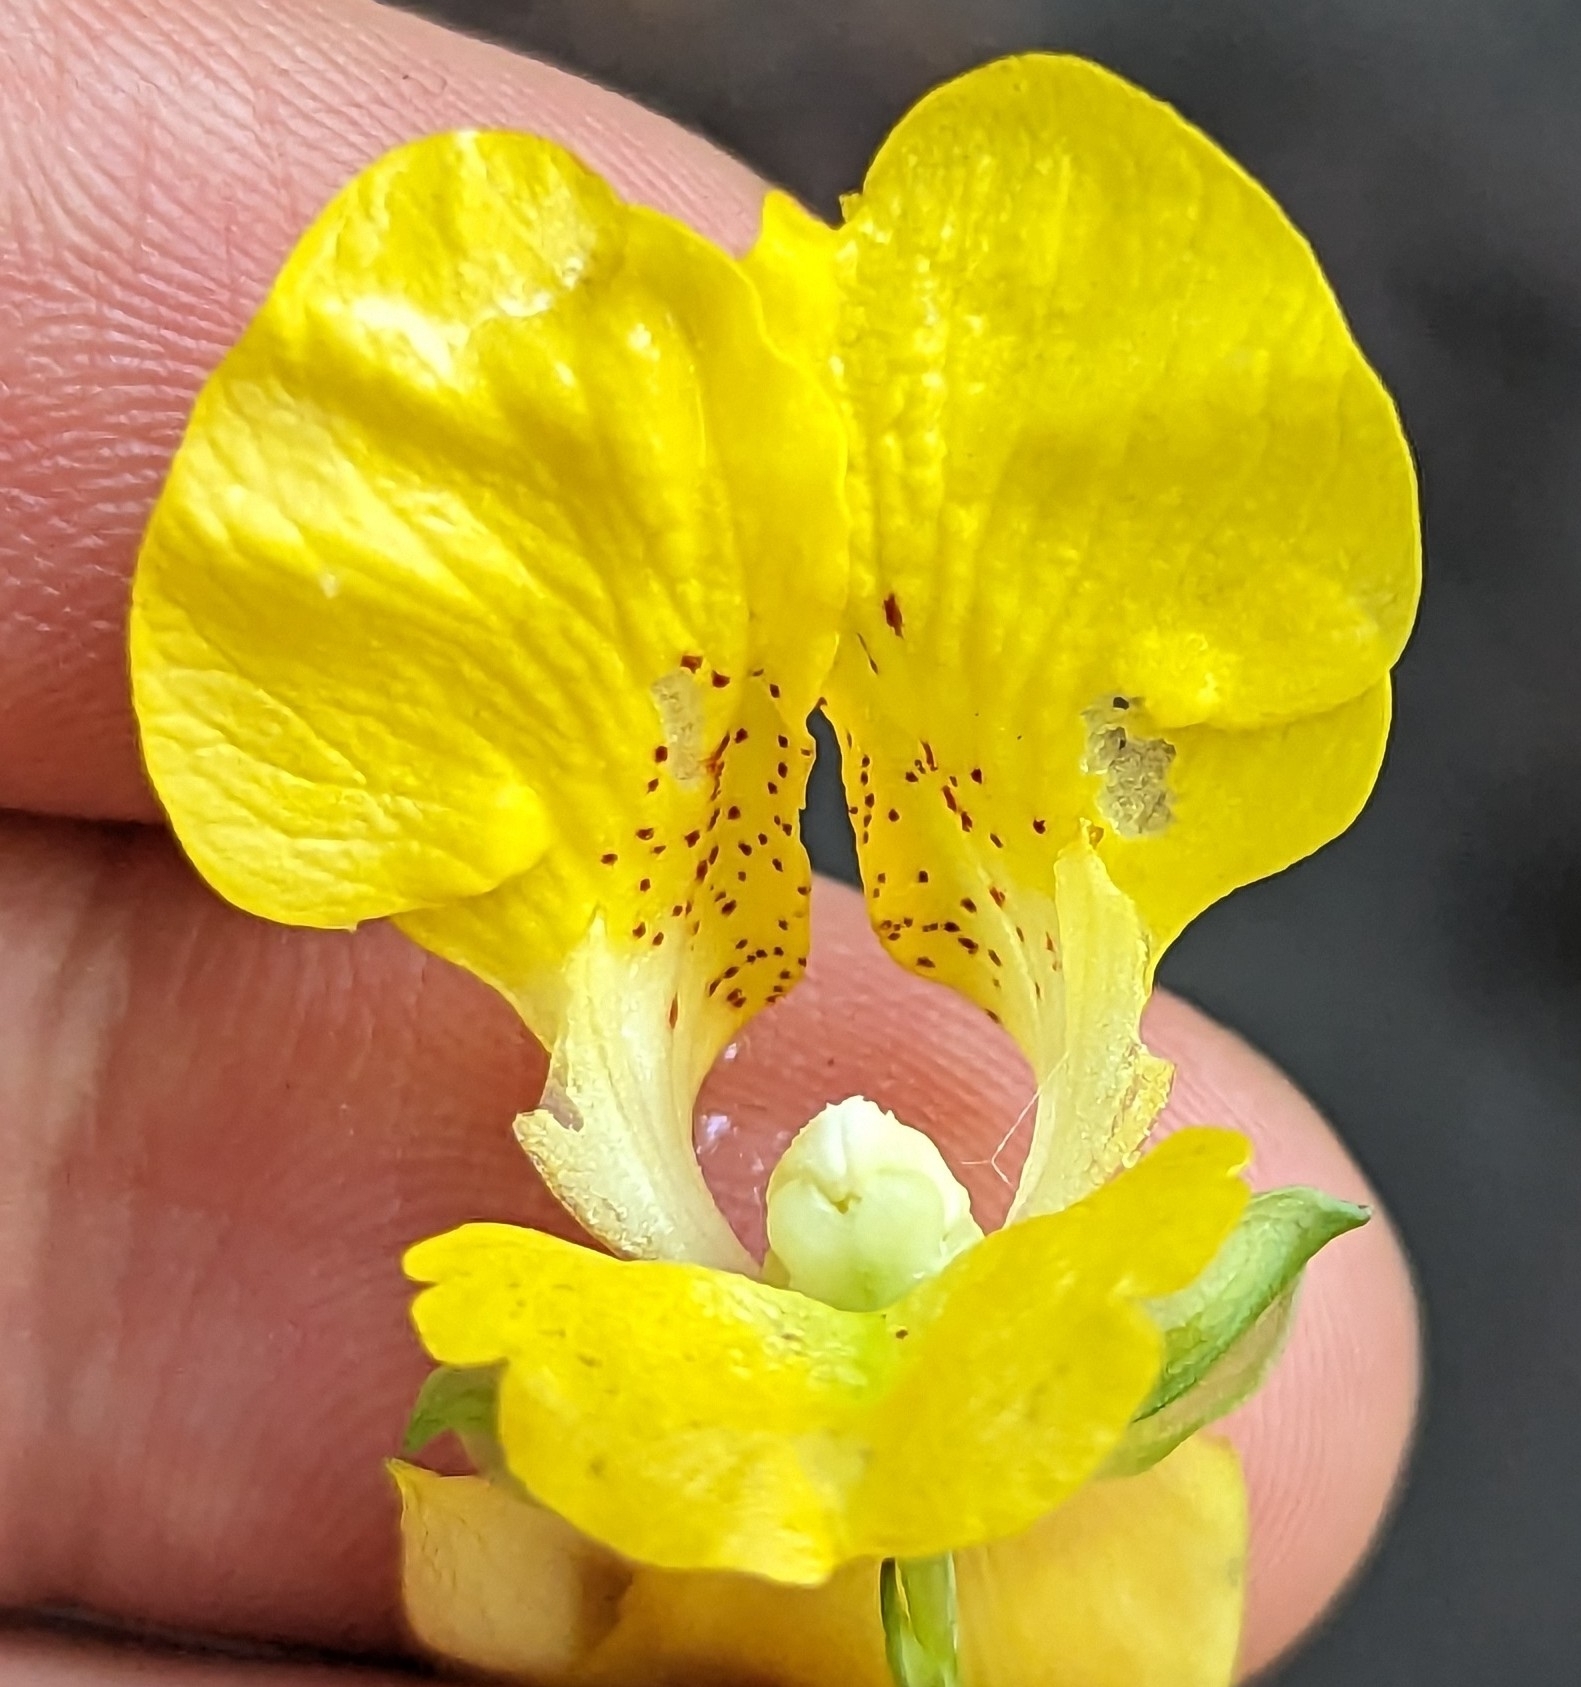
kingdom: Plantae
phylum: Tracheophyta
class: Magnoliopsida
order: Ericales
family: Balsaminaceae
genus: Impatiens
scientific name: Impatiens pallida
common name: Pale snapweed
